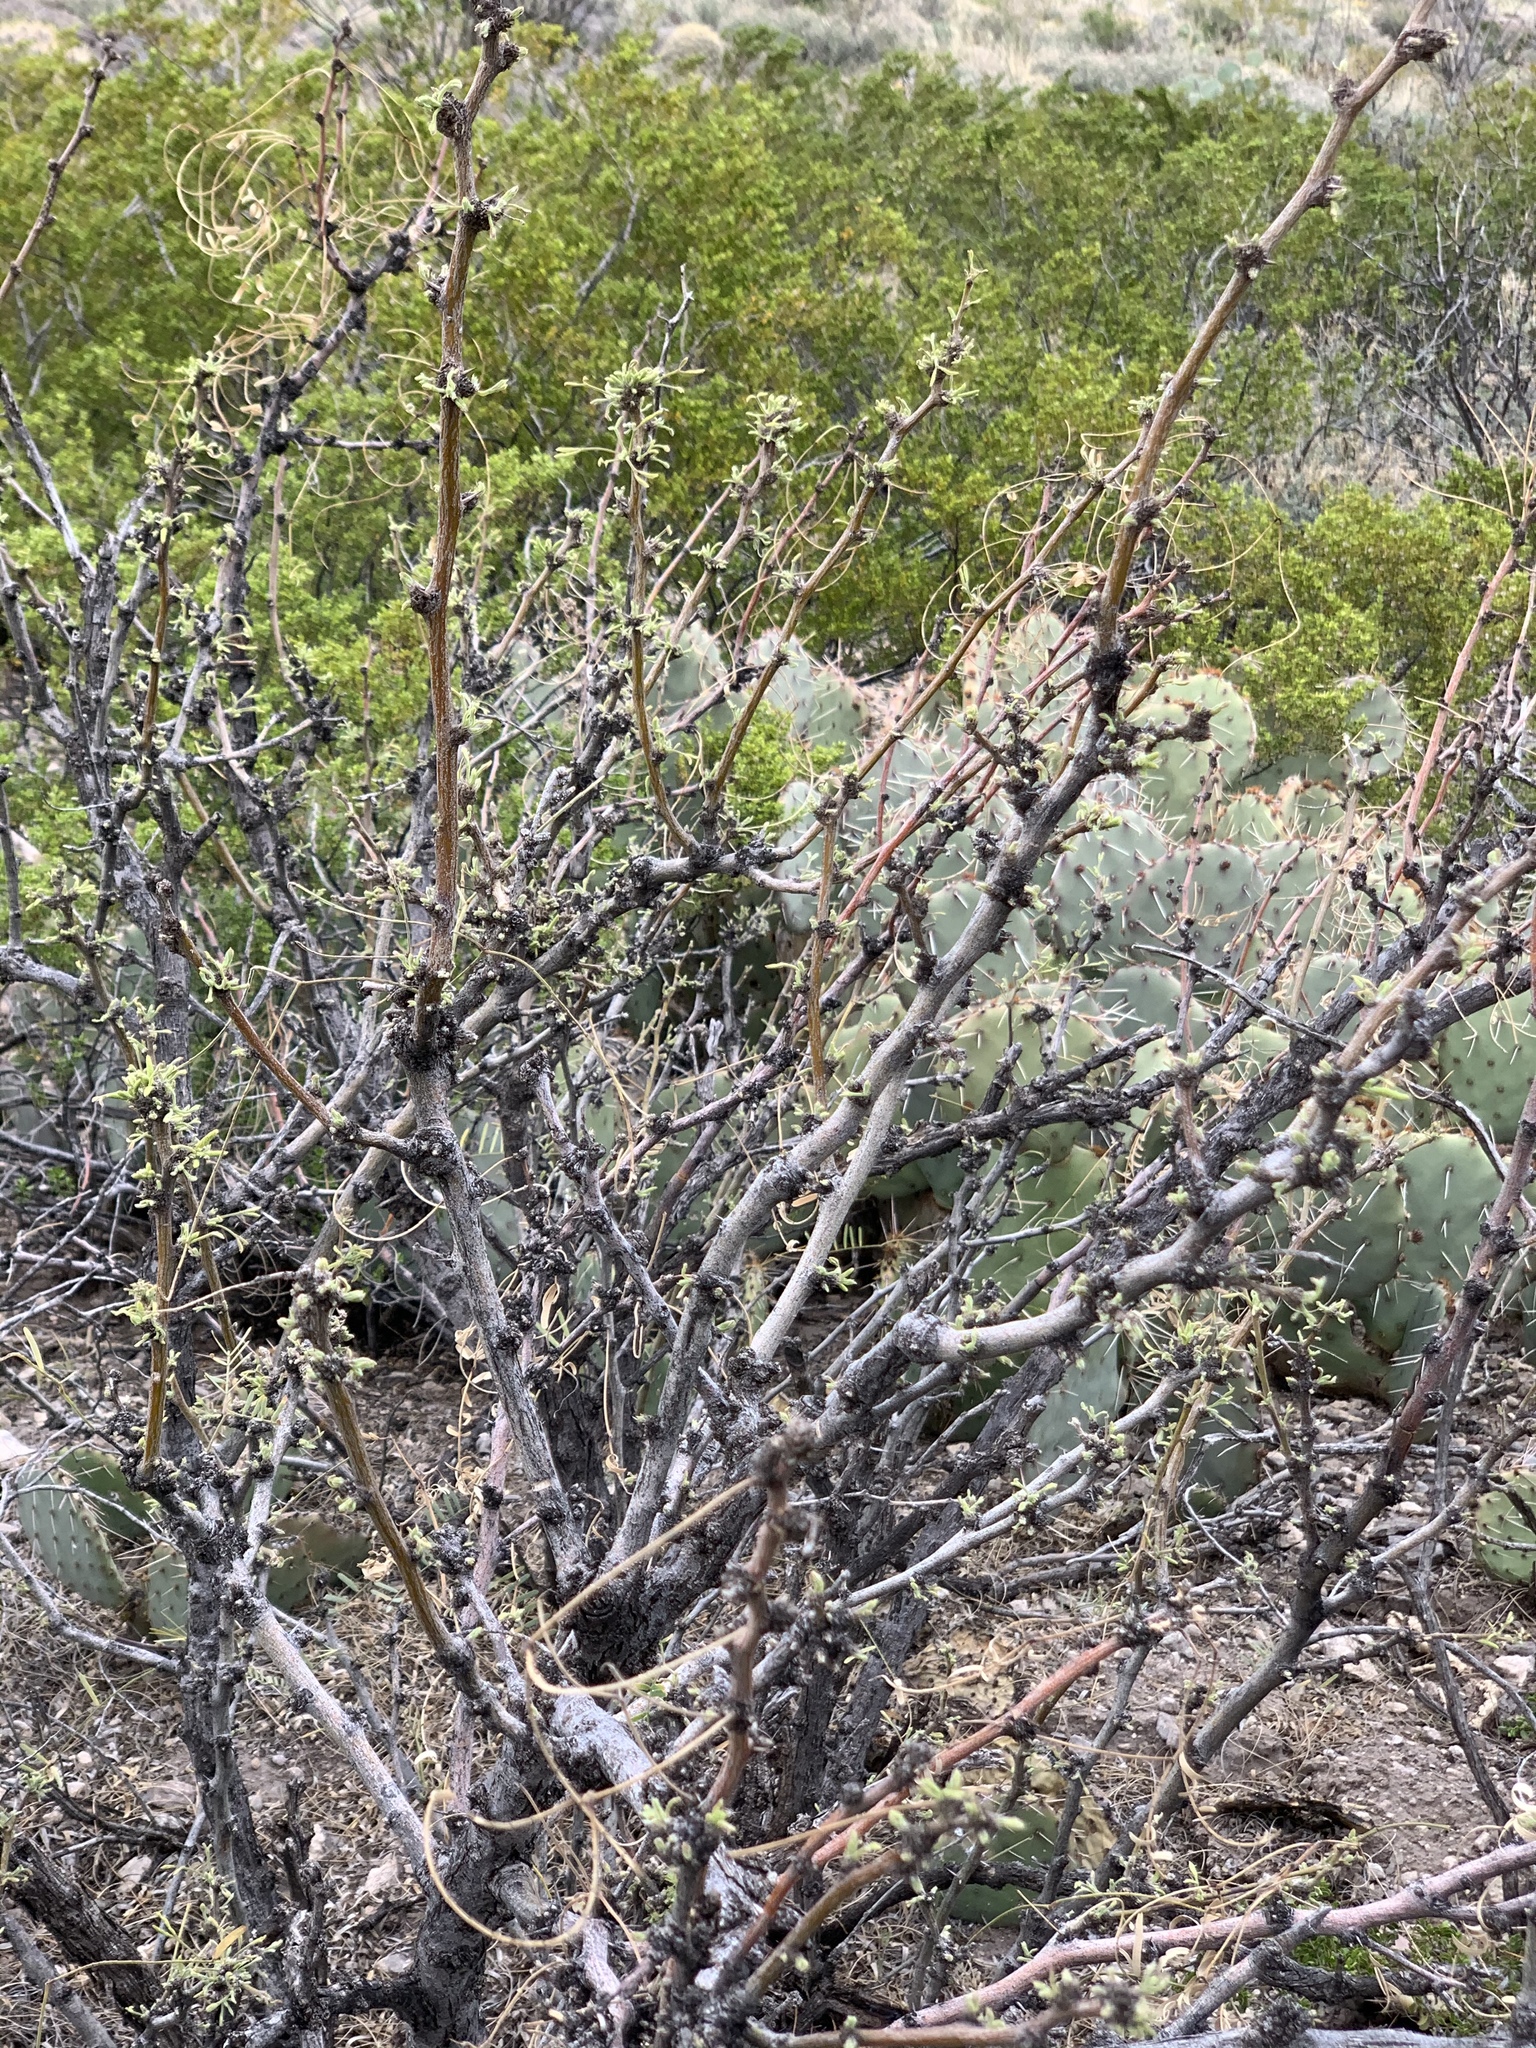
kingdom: Plantae
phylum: Tracheophyta
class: Magnoliopsida
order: Fabales
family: Fabaceae
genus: Prosopis
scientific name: Prosopis glandulosa
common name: Honey mesquite
